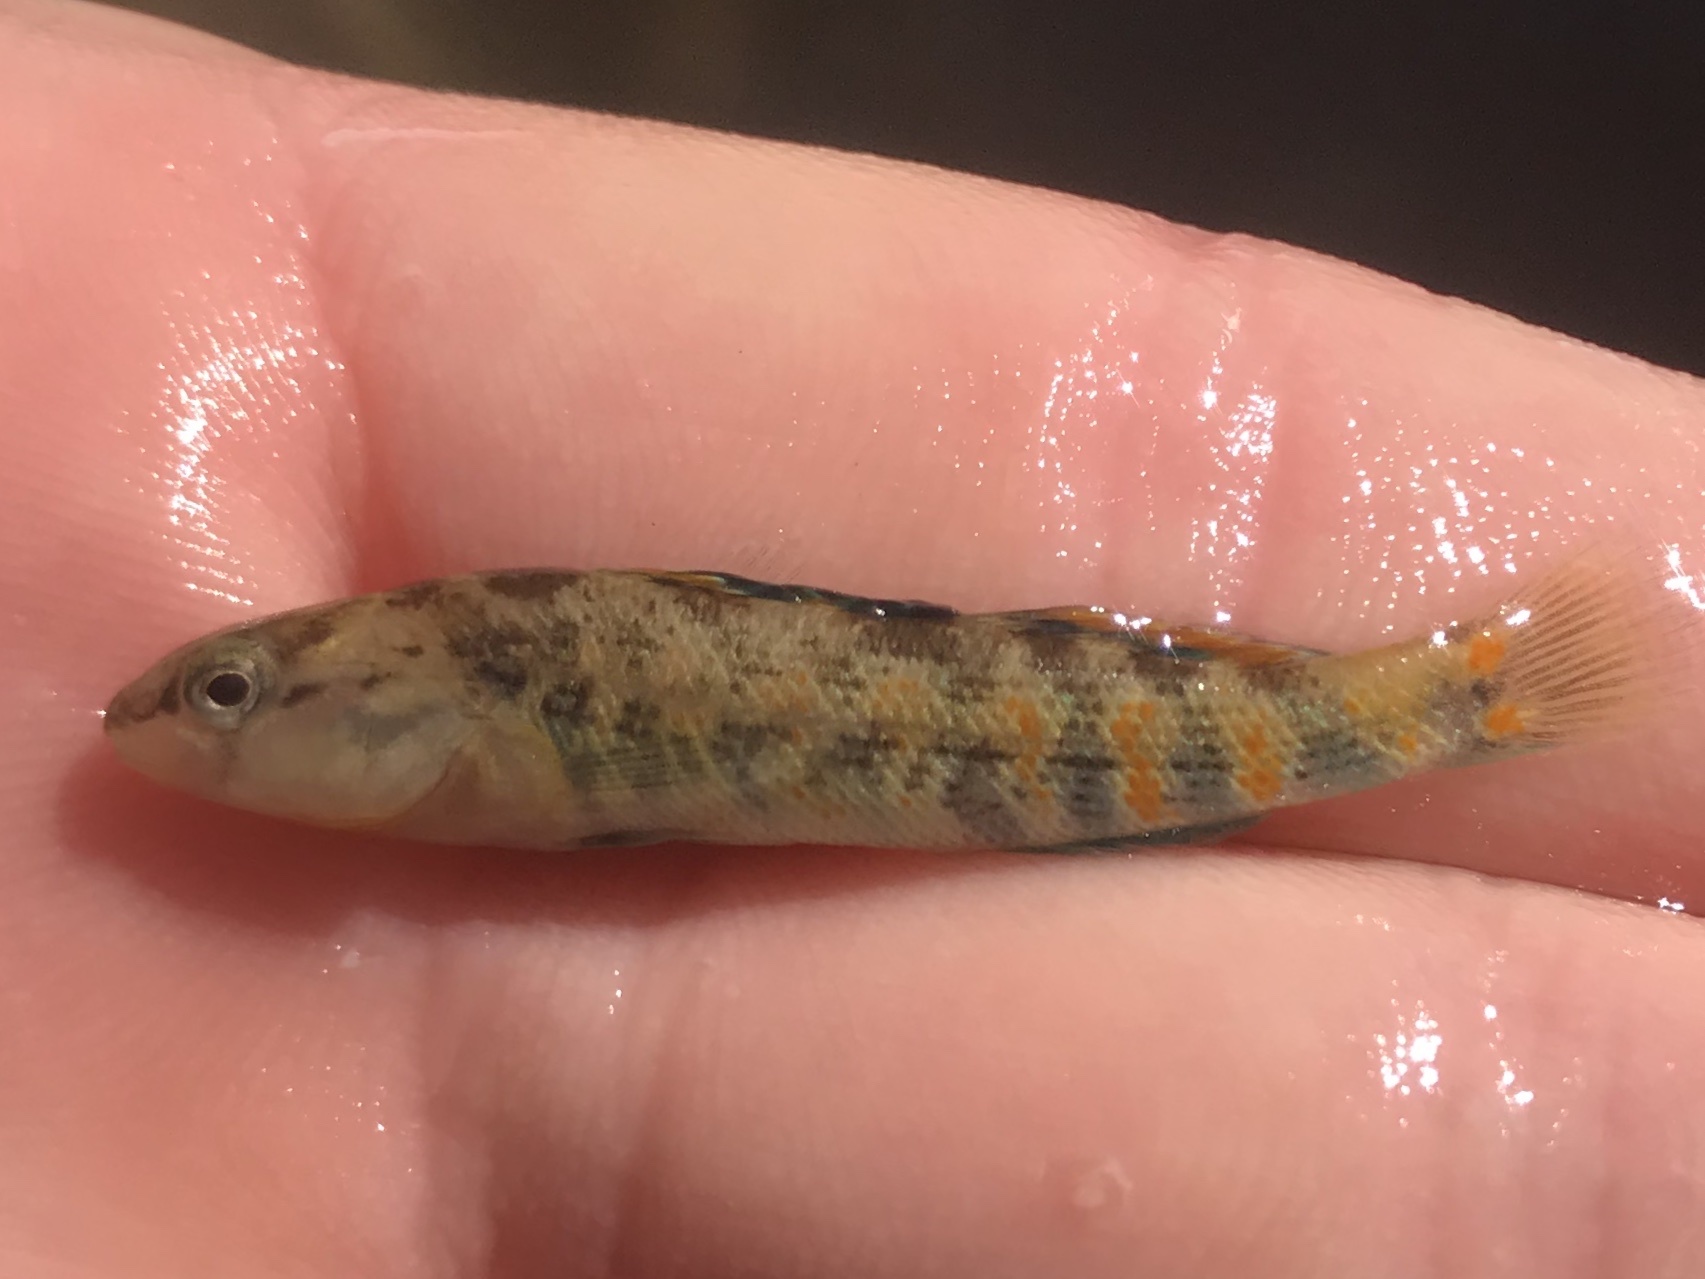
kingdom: Animalia
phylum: Chordata
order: Perciformes
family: Percidae
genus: Etheostoma
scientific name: Etheostoma spectabile
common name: Orangethroat darter
